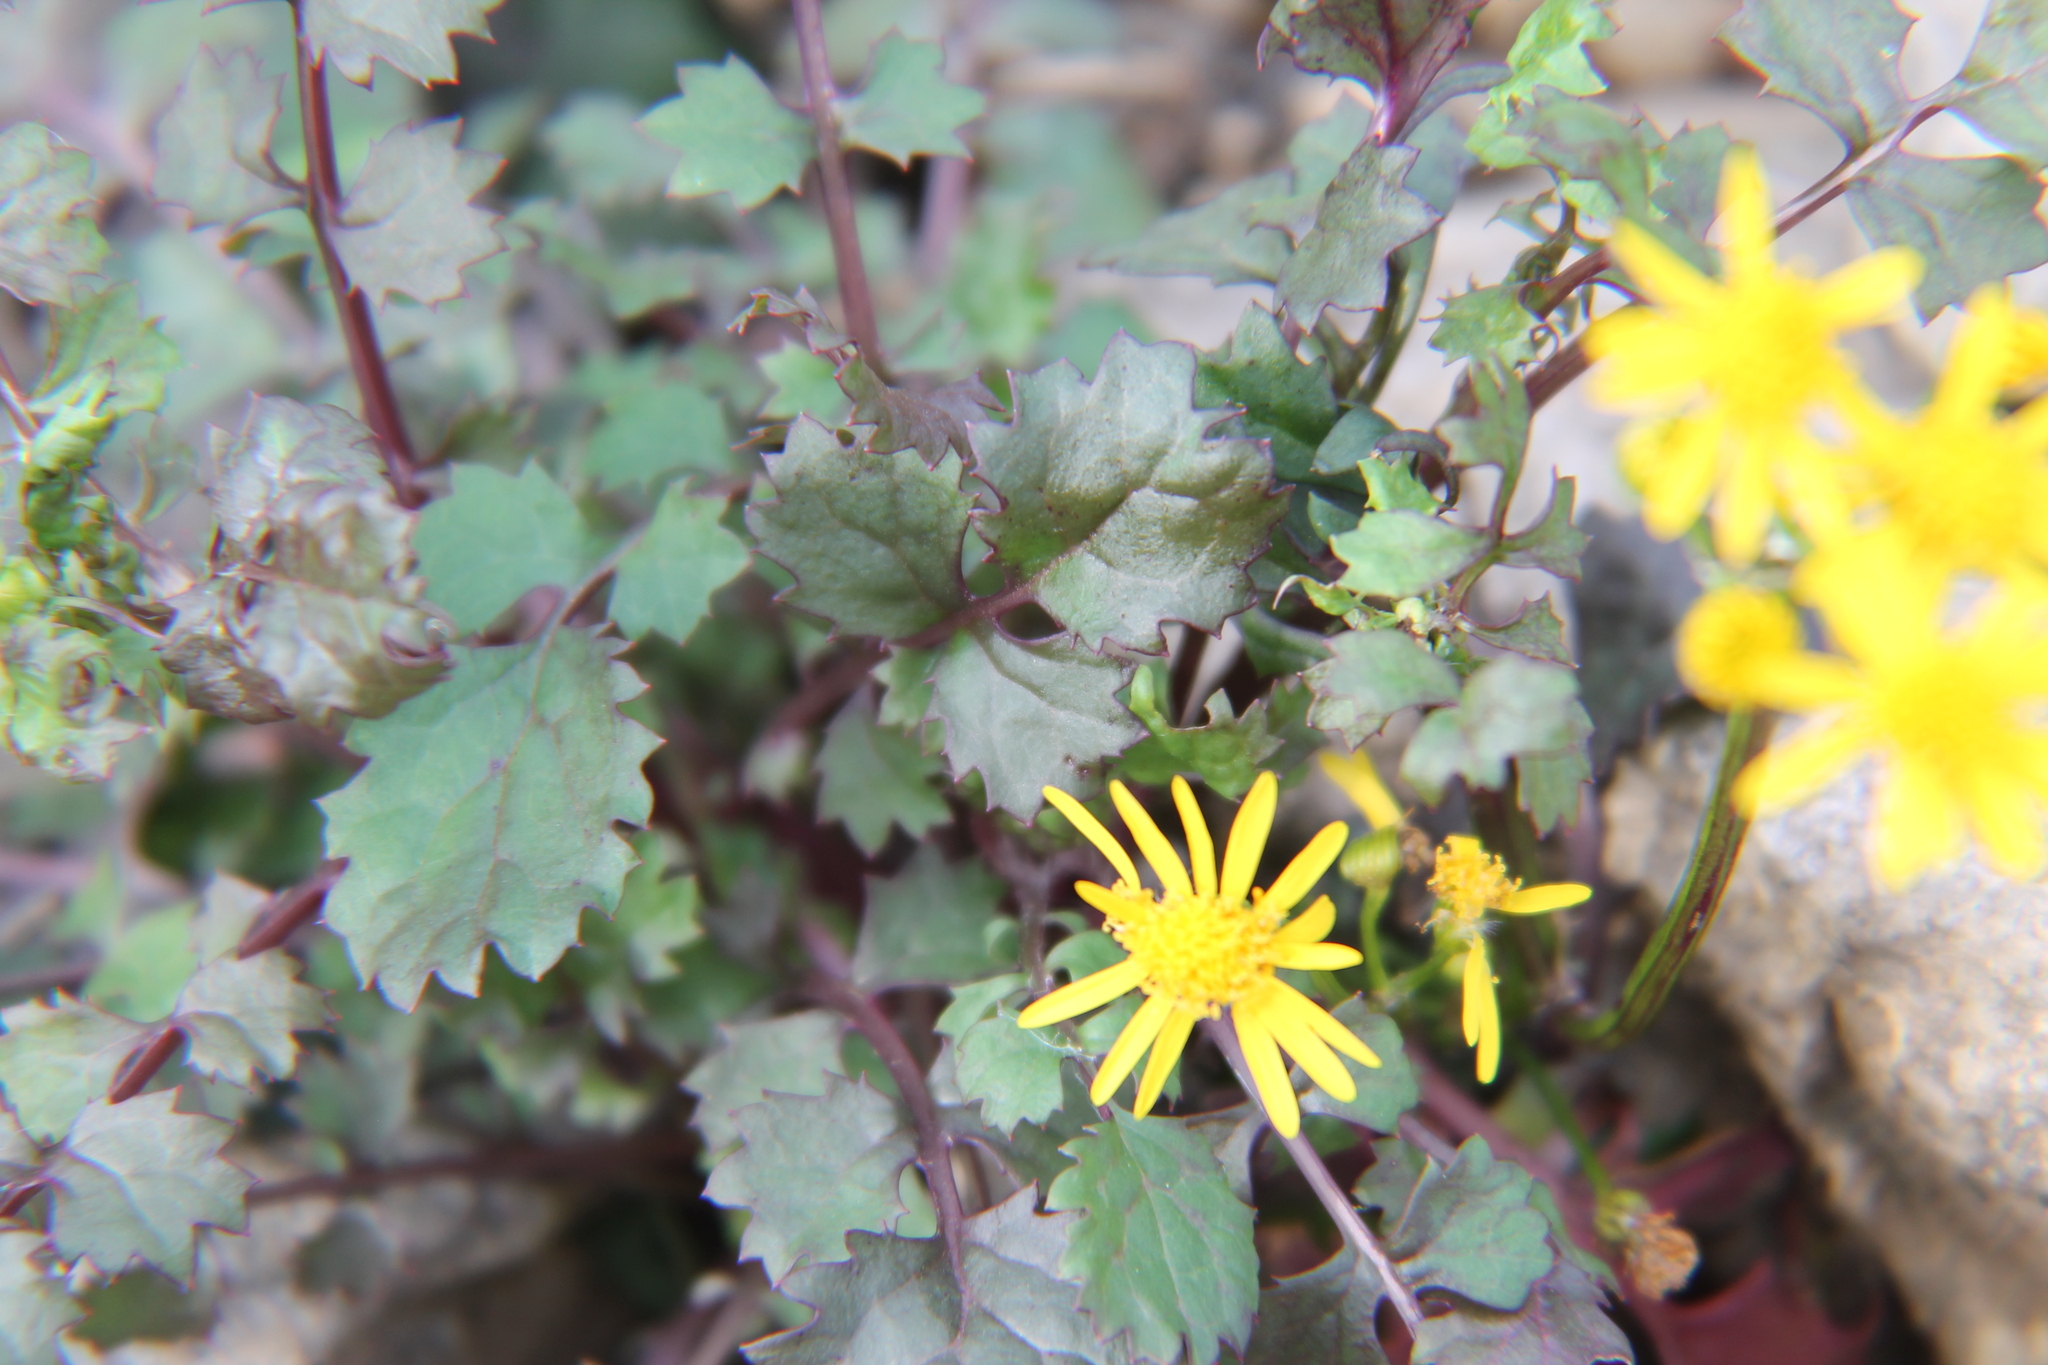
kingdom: Plantae
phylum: Tracheophyta
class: Magnoliopsida
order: Asterales
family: Asteraceae
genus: Packera
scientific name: Packera glabella
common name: Butterweed
